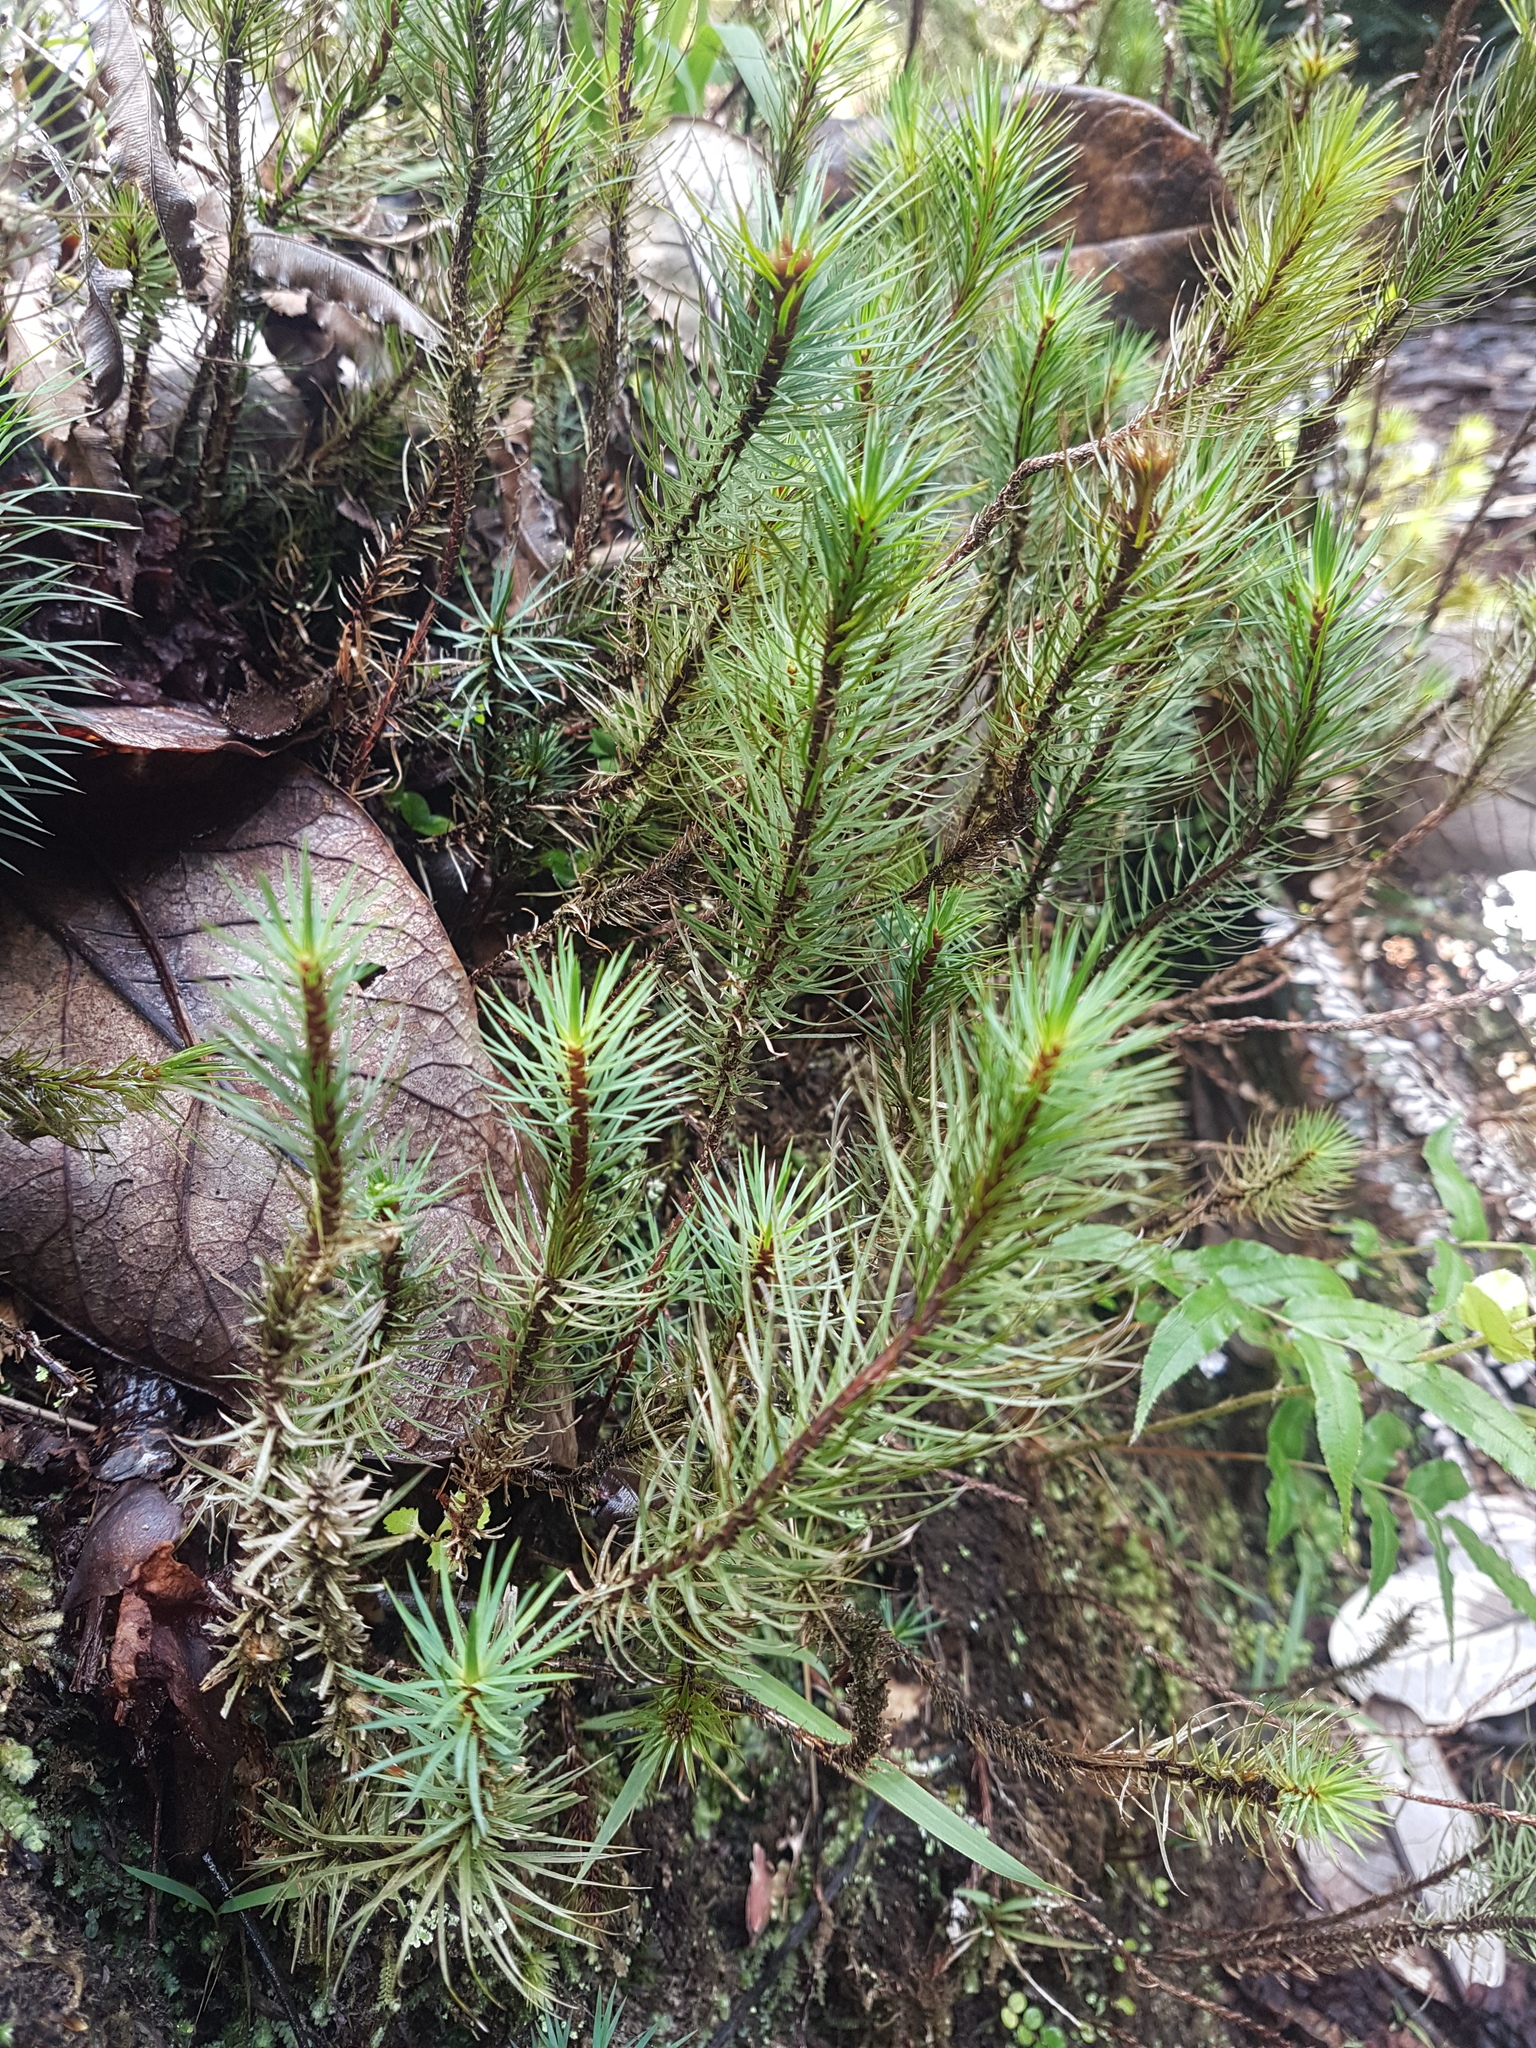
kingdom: Plantae
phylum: Bryophyta
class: Polytrichopsida
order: Polytrichales
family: Polytrichaceae
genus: Dawsonia
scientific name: Dawsonia superba
